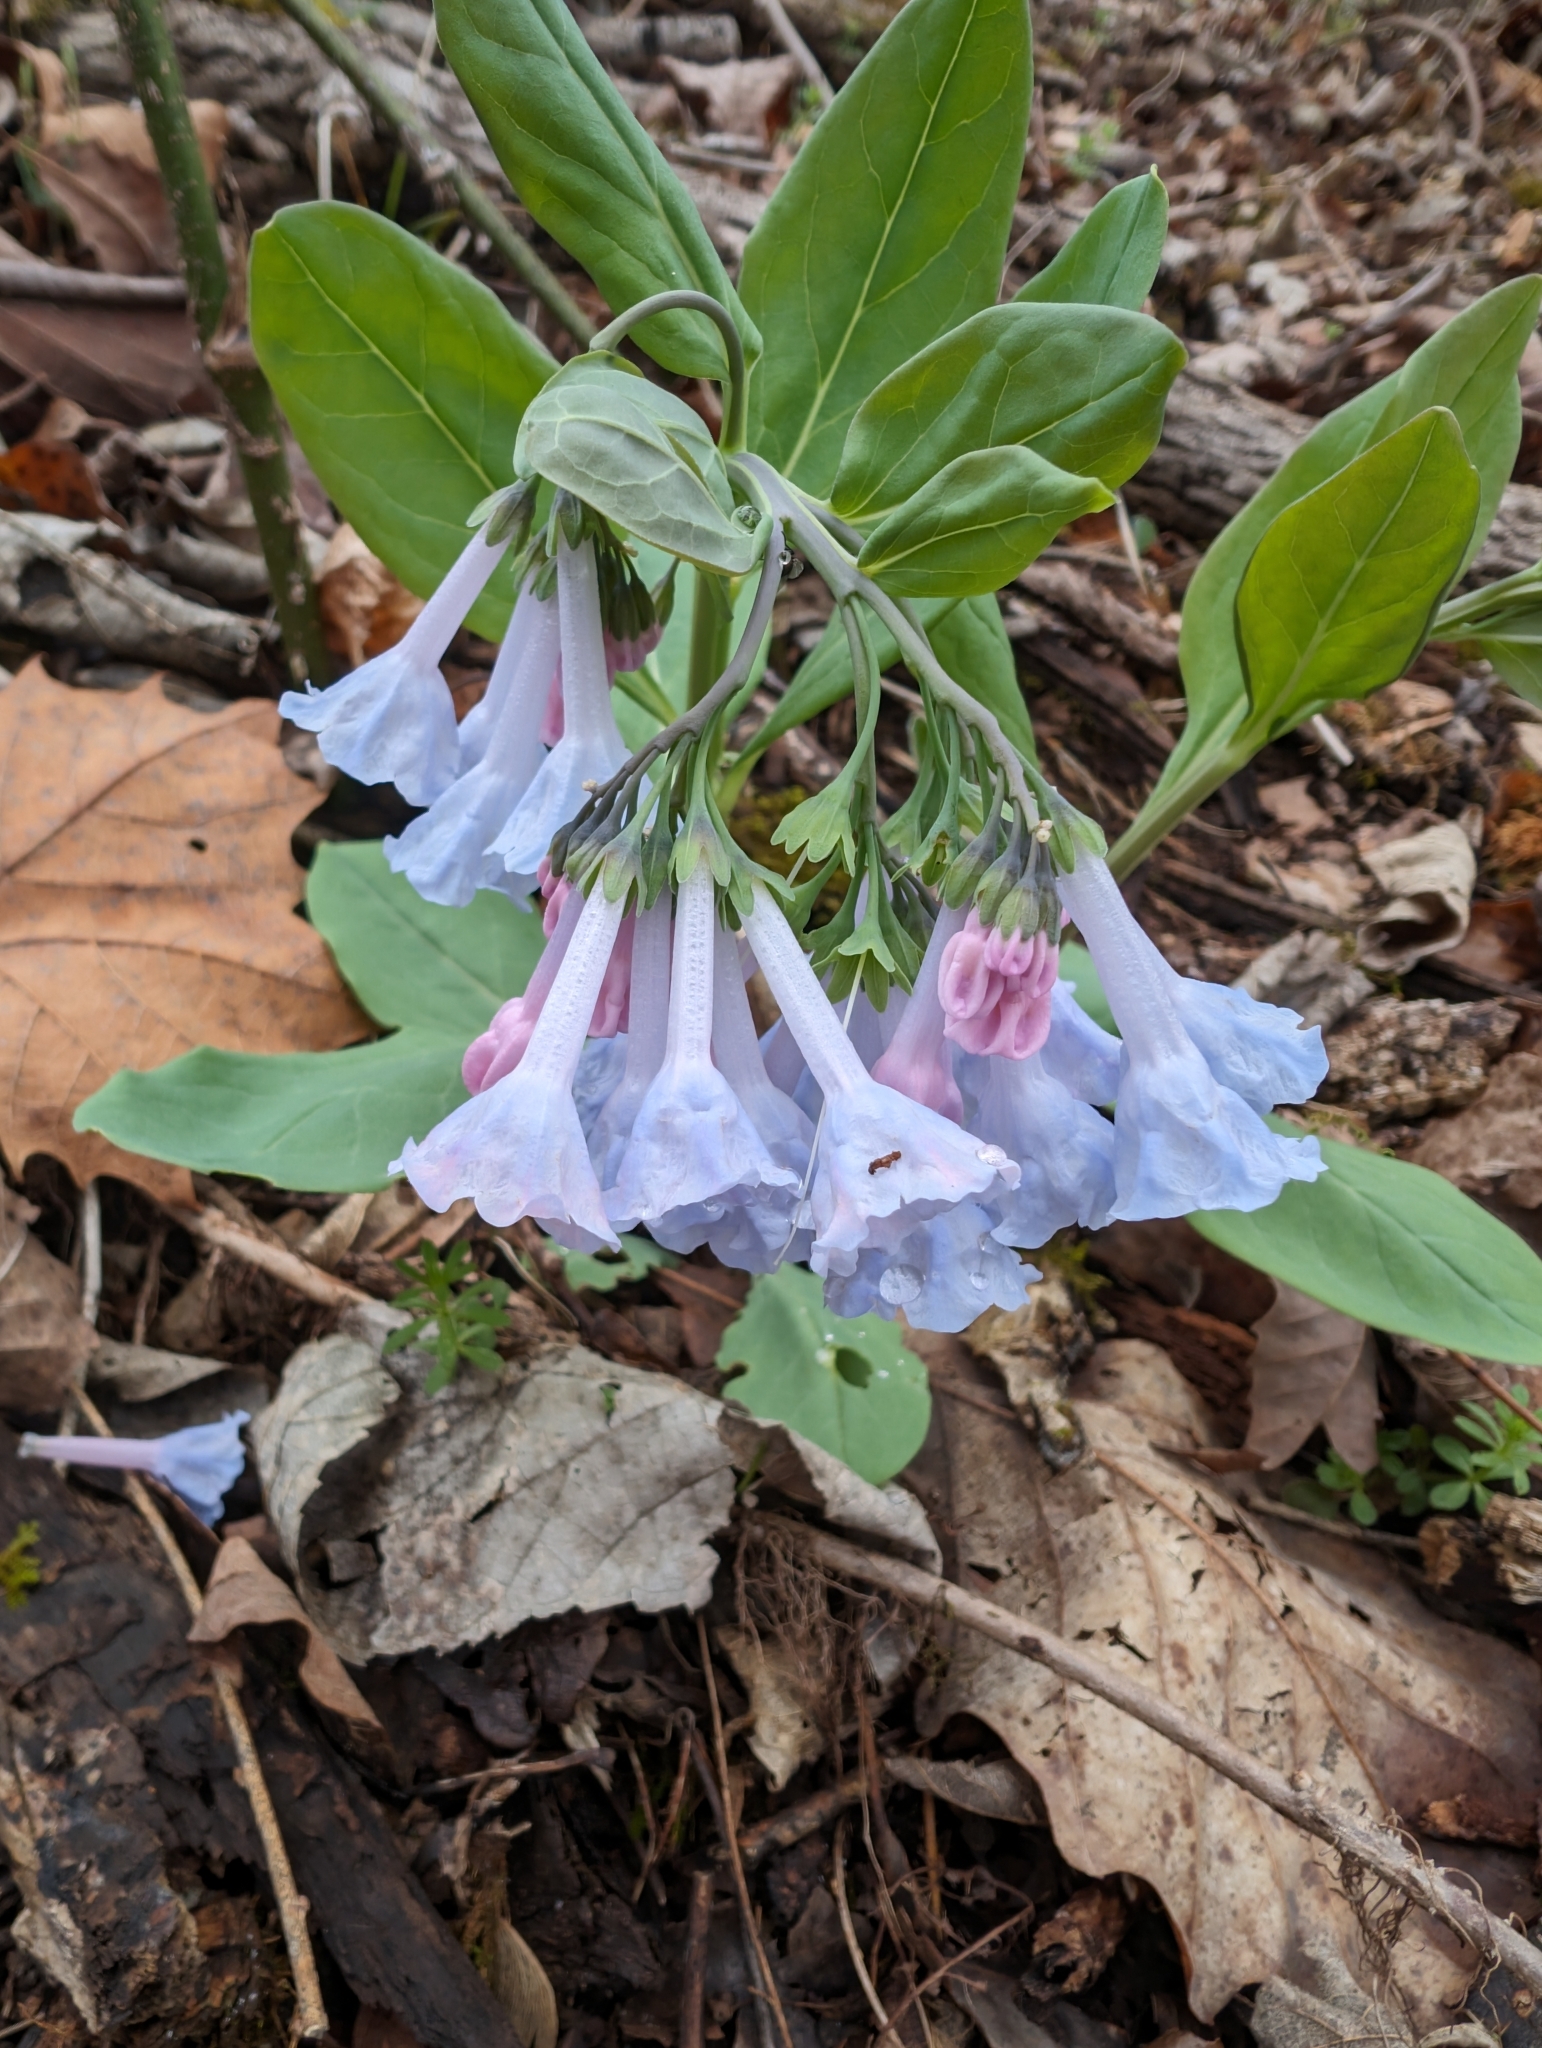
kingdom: Plantae
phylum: Tracheophyta
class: Magnoliopsida
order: Boraginales
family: Boraginaceae
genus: Mertensia
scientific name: Mertensia virginica
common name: Virginia bluebells
